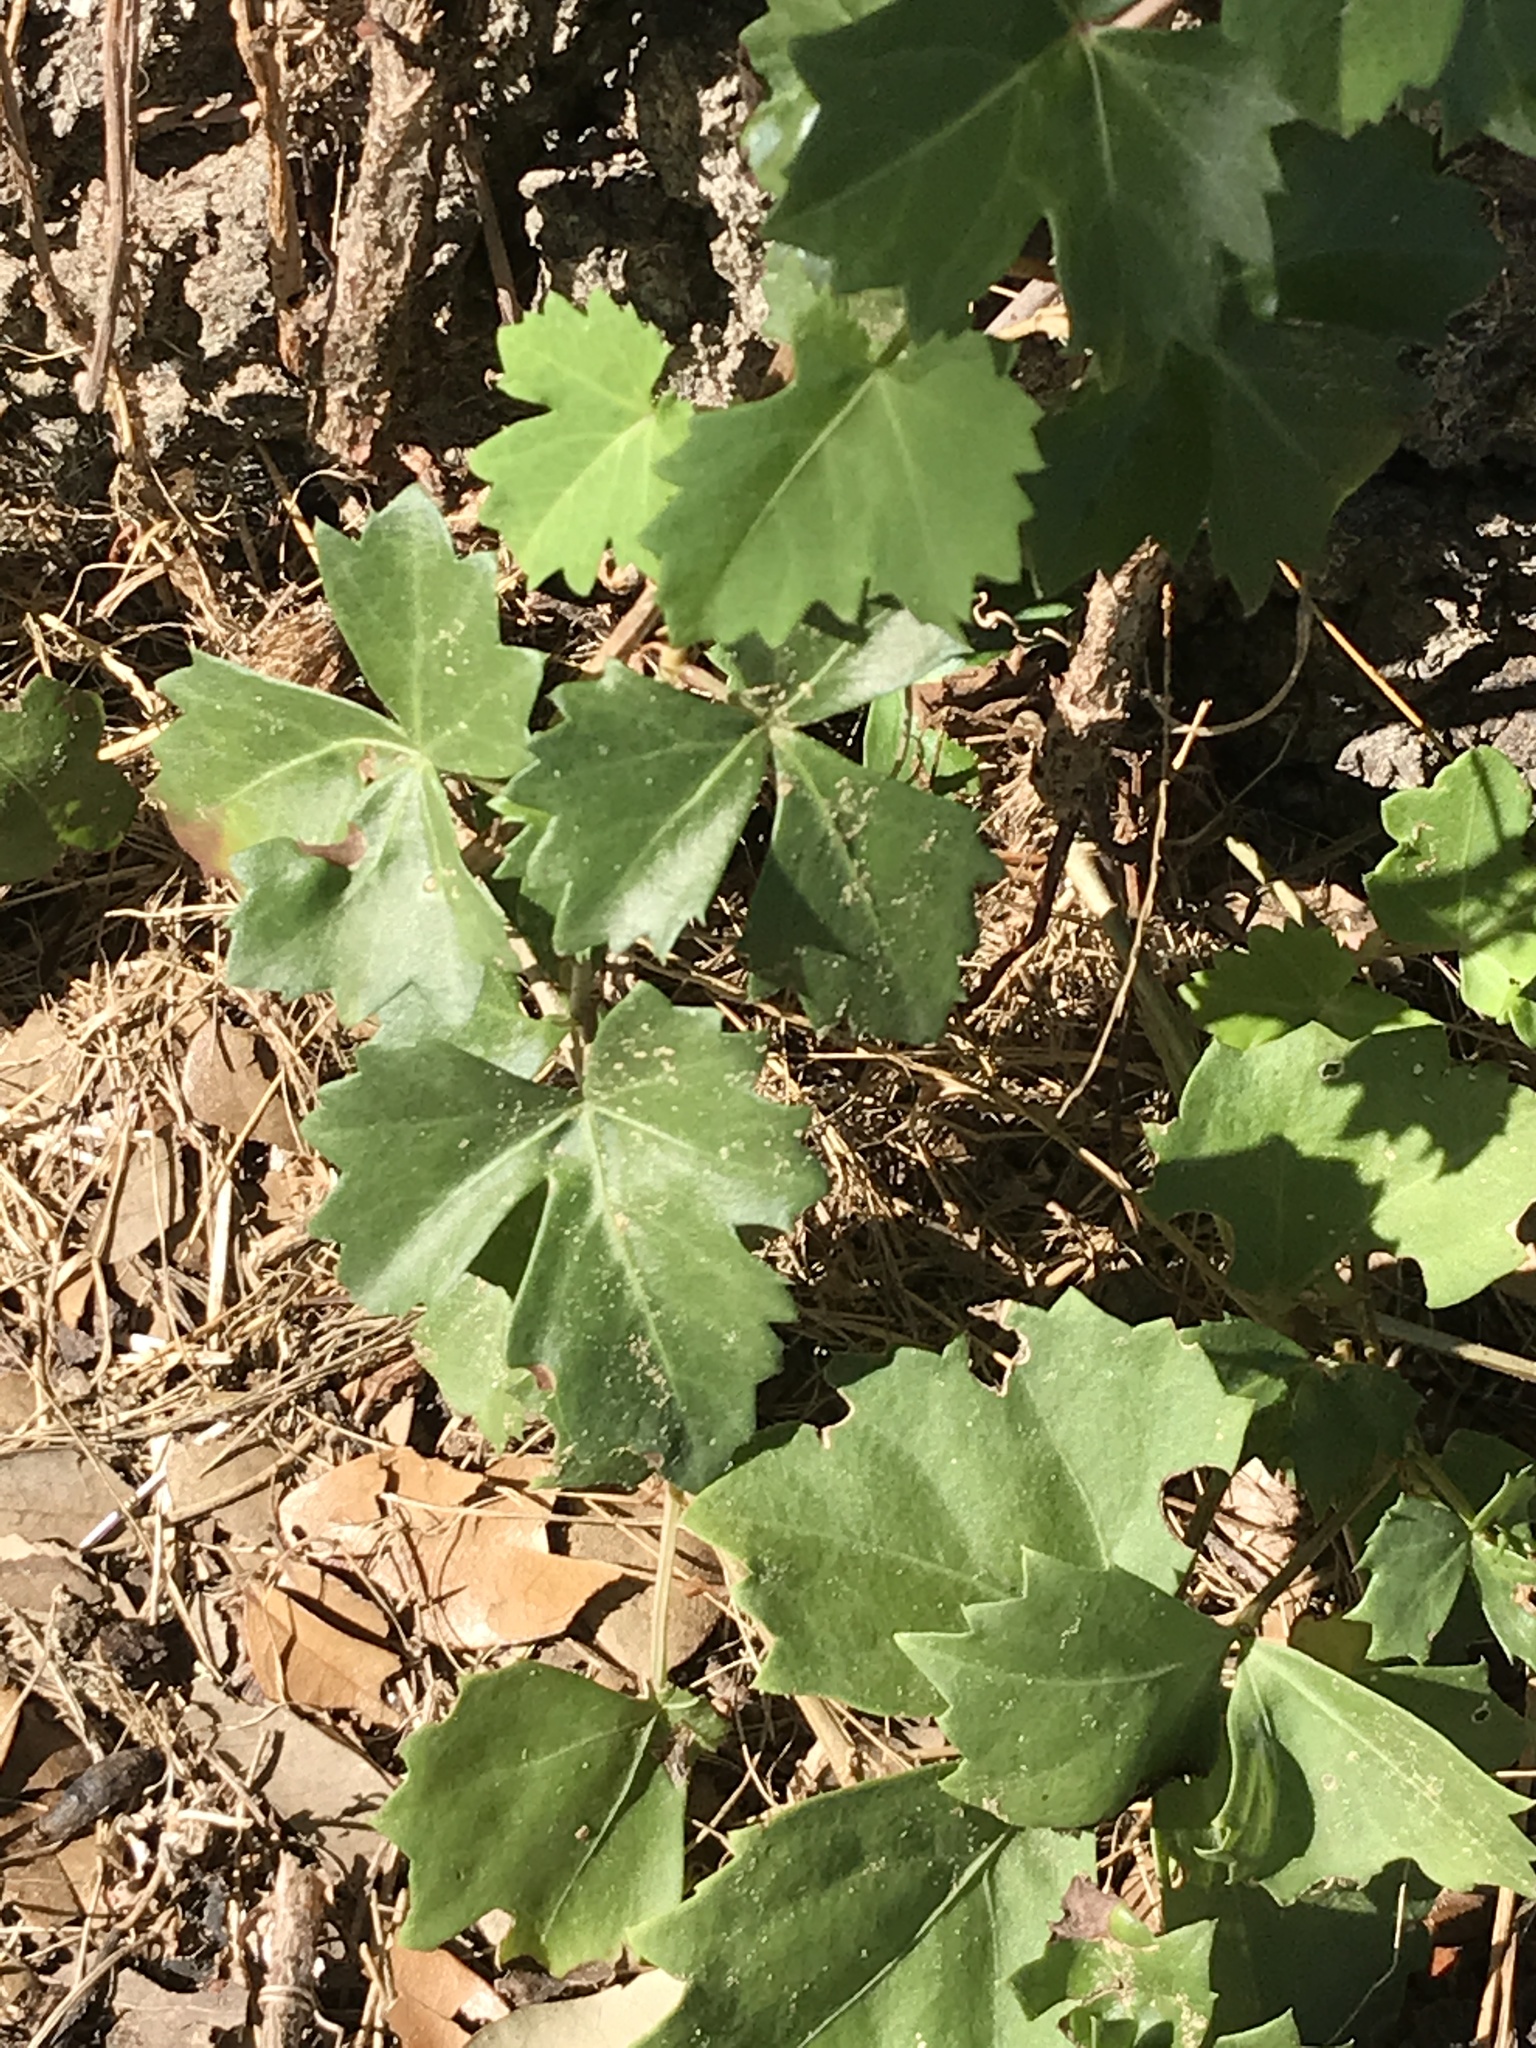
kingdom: Plantae
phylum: Tracheophyta
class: Magnoliopsida
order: Vitales
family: Vitaceae
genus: Cissus
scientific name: Cissus trifoliata
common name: Vine-sorrel
